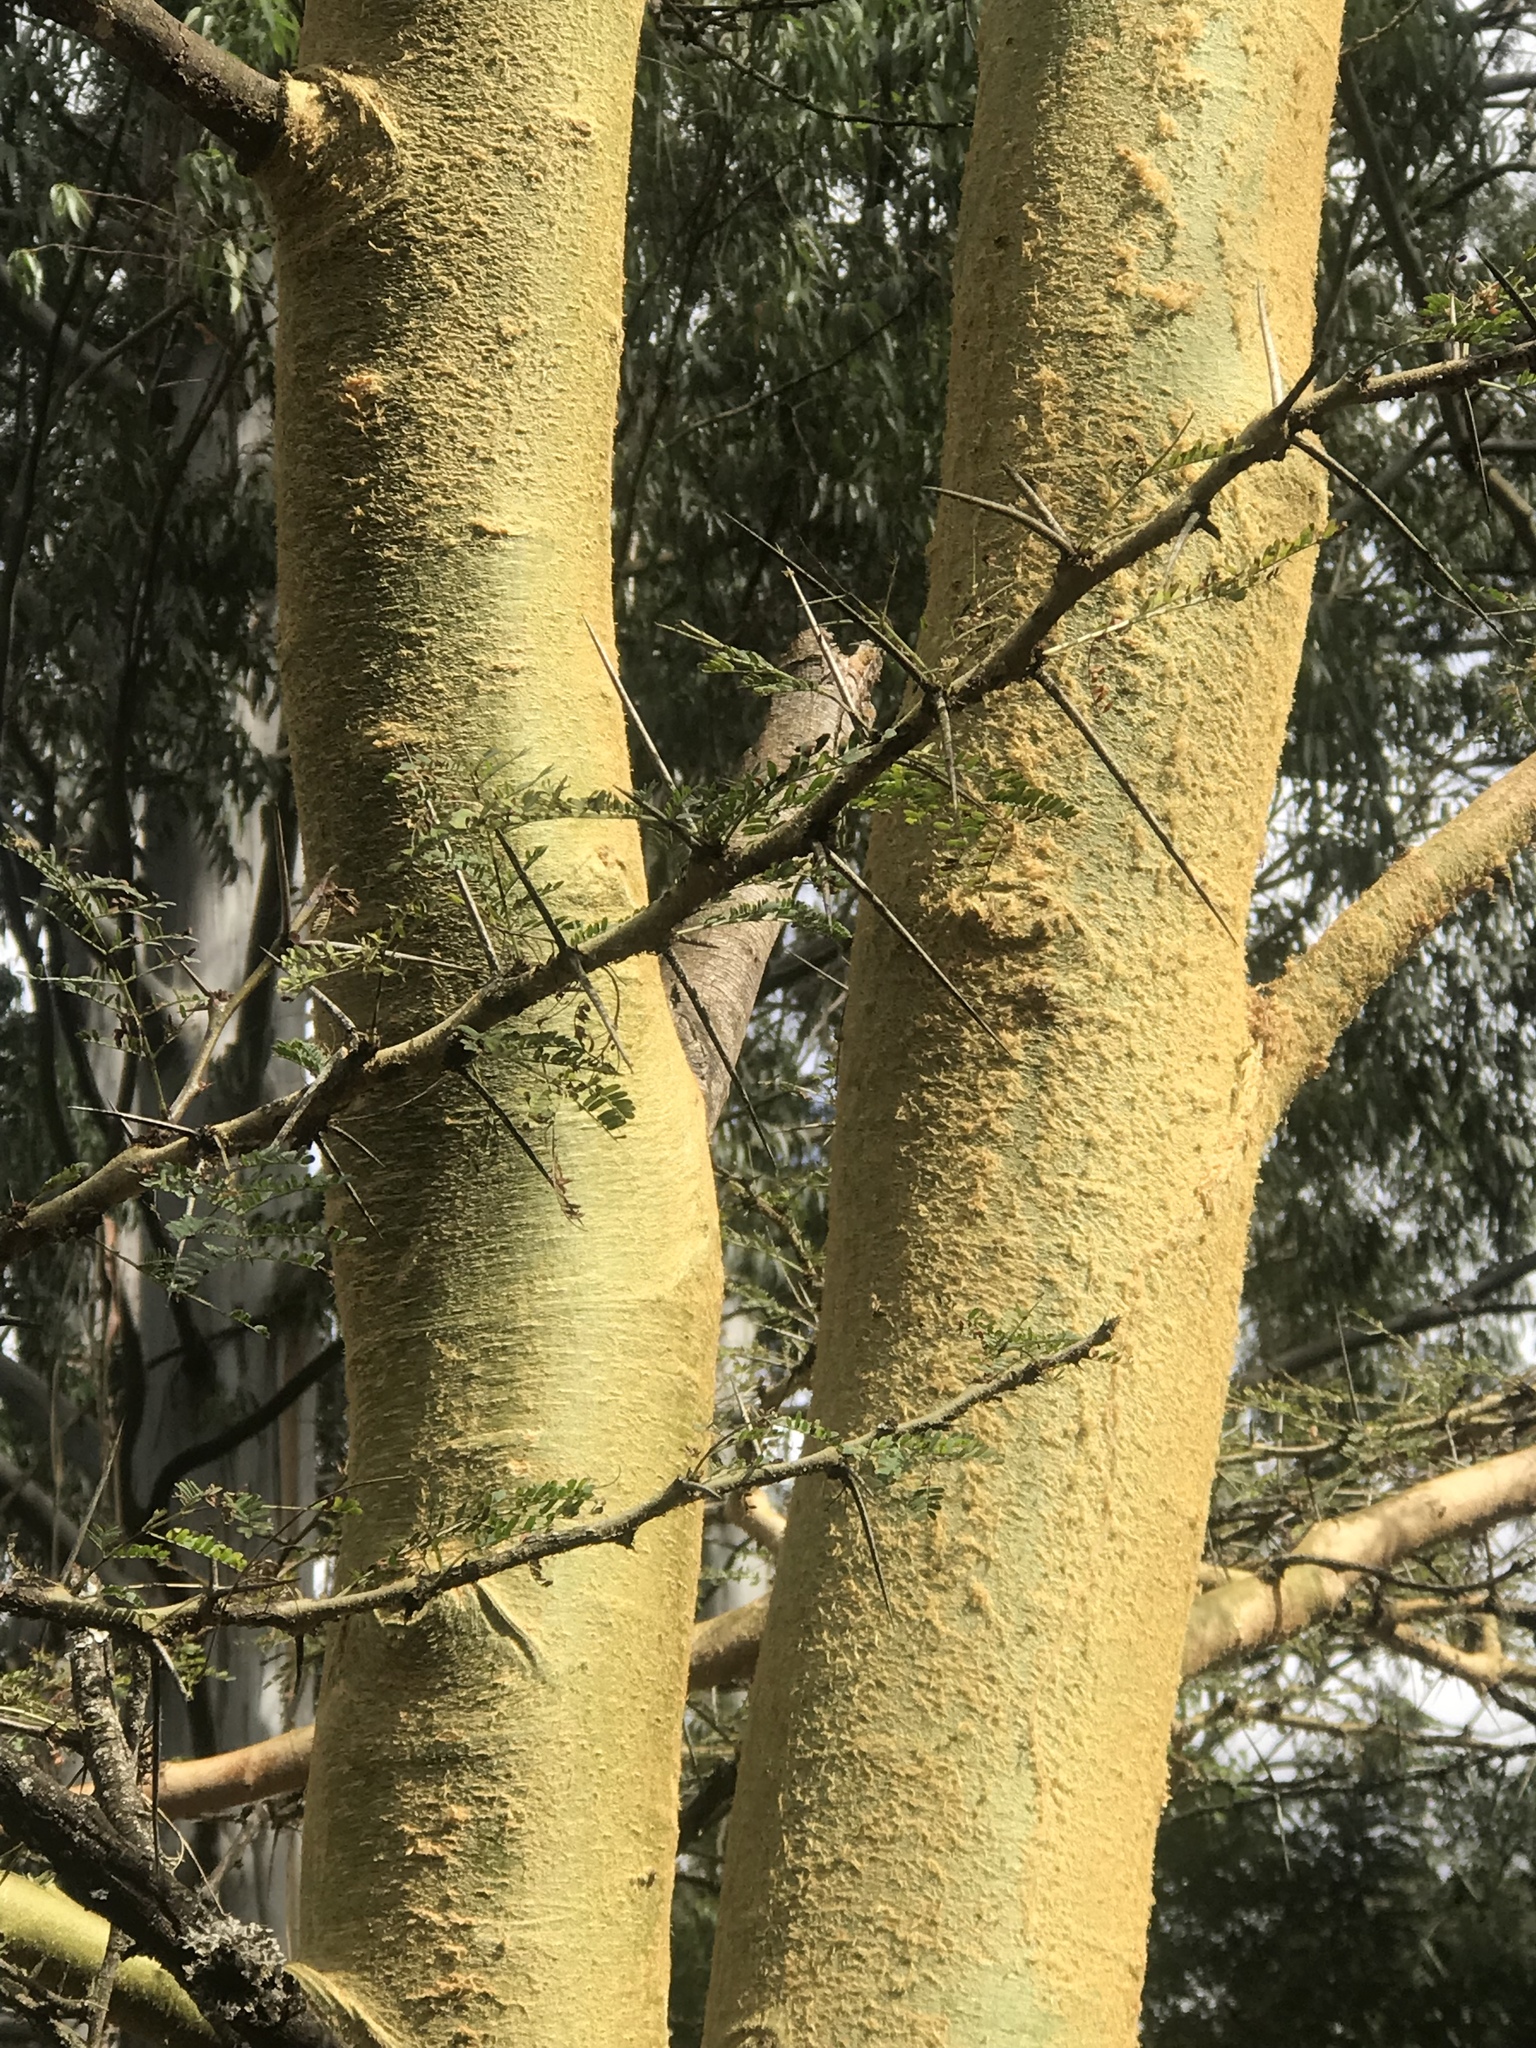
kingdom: Plantae
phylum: Tracheophyta
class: Magnoliopsida
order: Fabales
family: Fabaceae
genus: Vachellia
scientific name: Vachellia xanthophloea
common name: Fever tree
